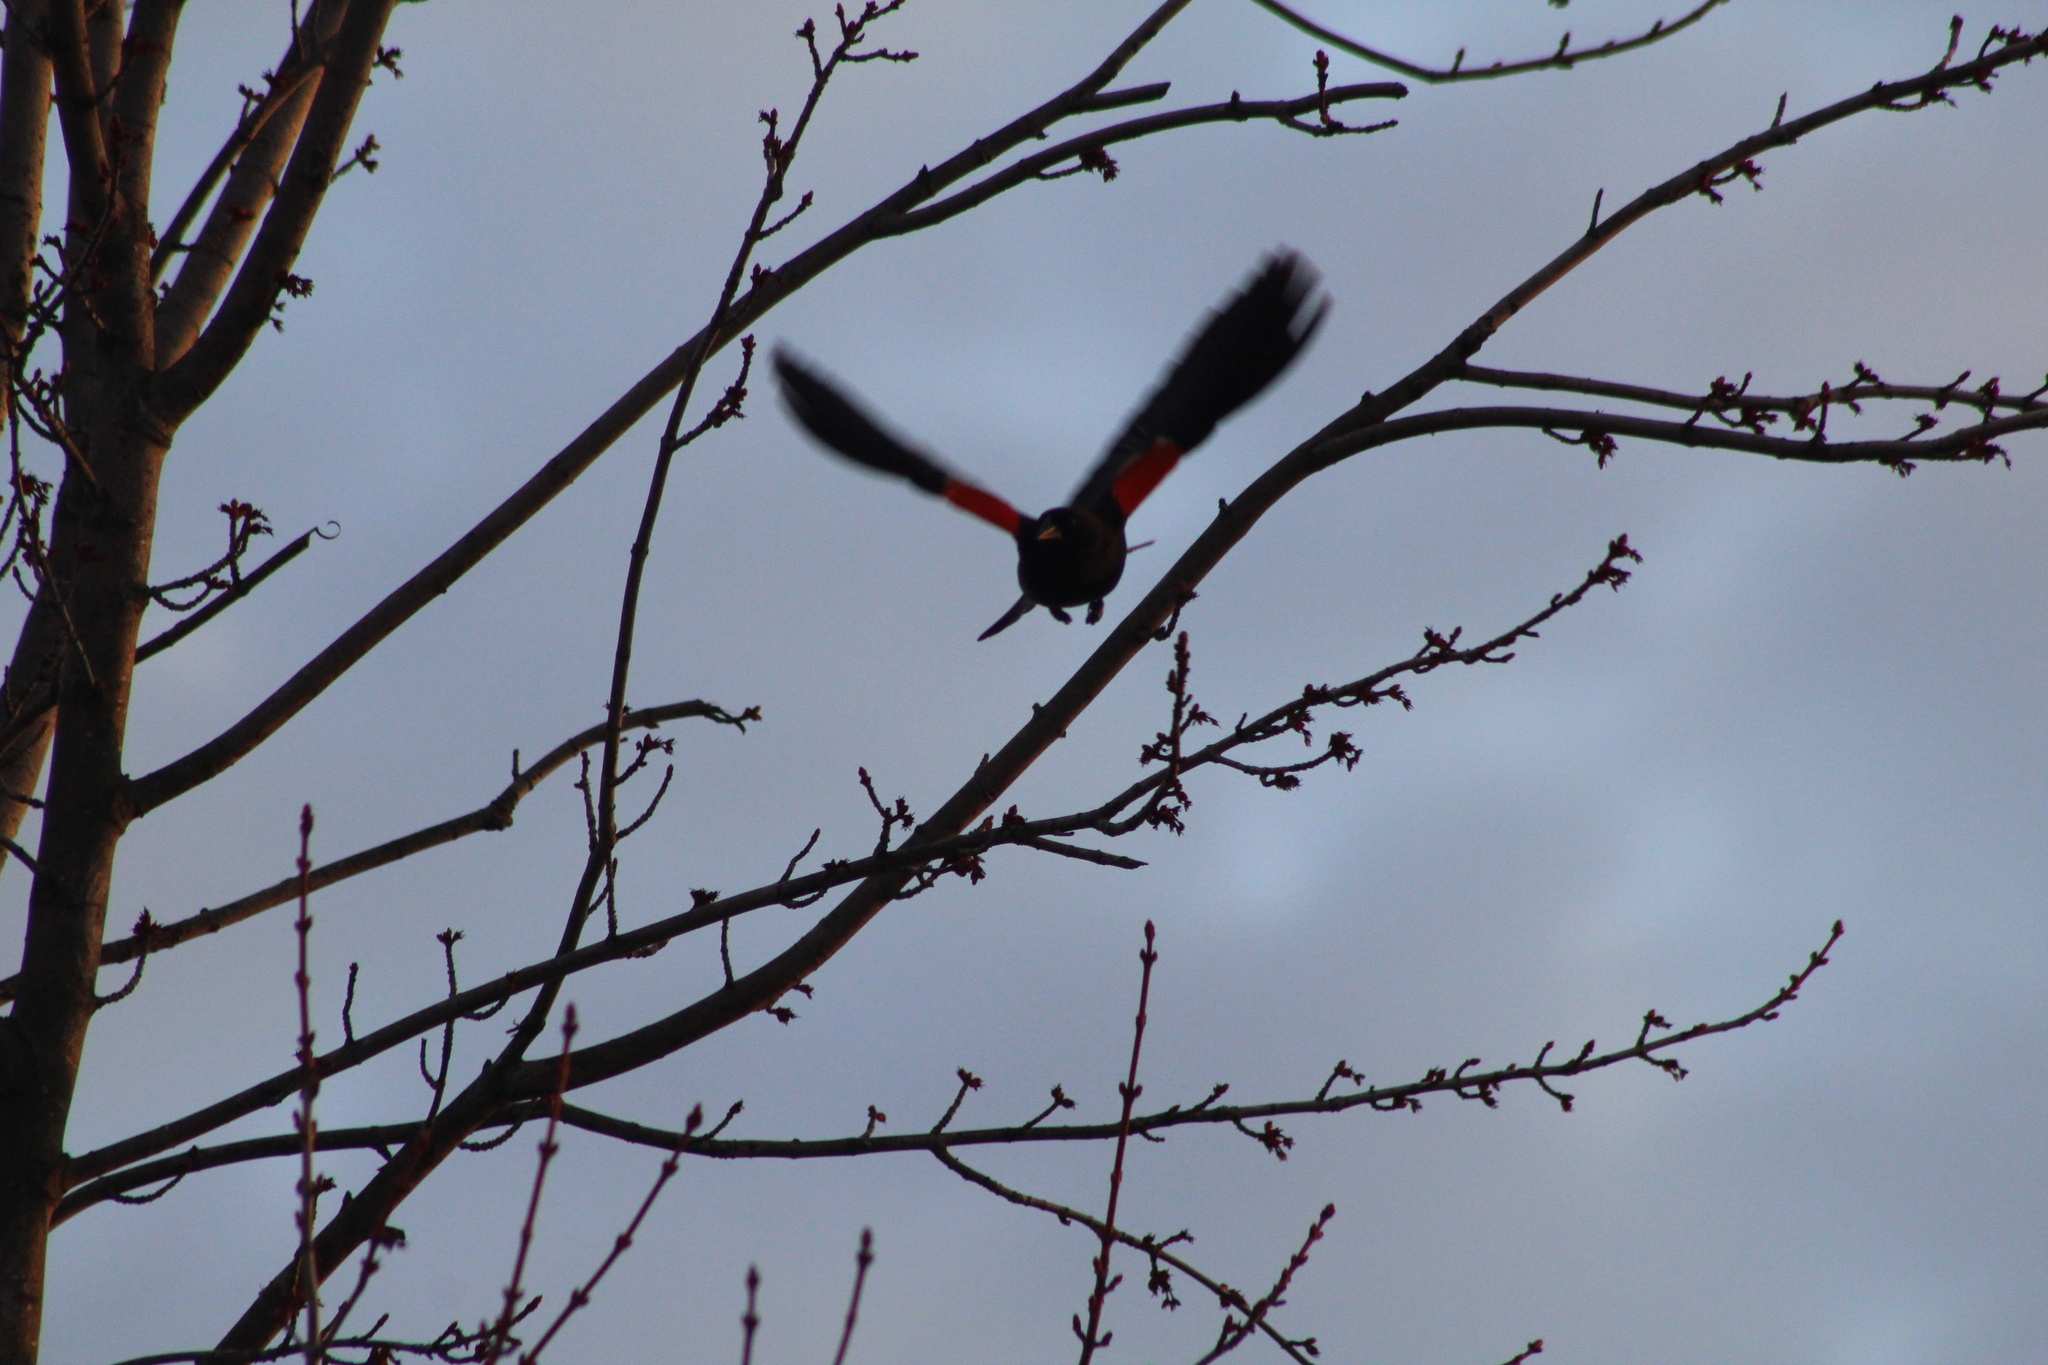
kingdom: Animalia
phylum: Chordata
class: Aves
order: Passeriformes
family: Icteridae
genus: Agelaius
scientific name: Agelaius phoeniceus
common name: Red-winged blackbird
